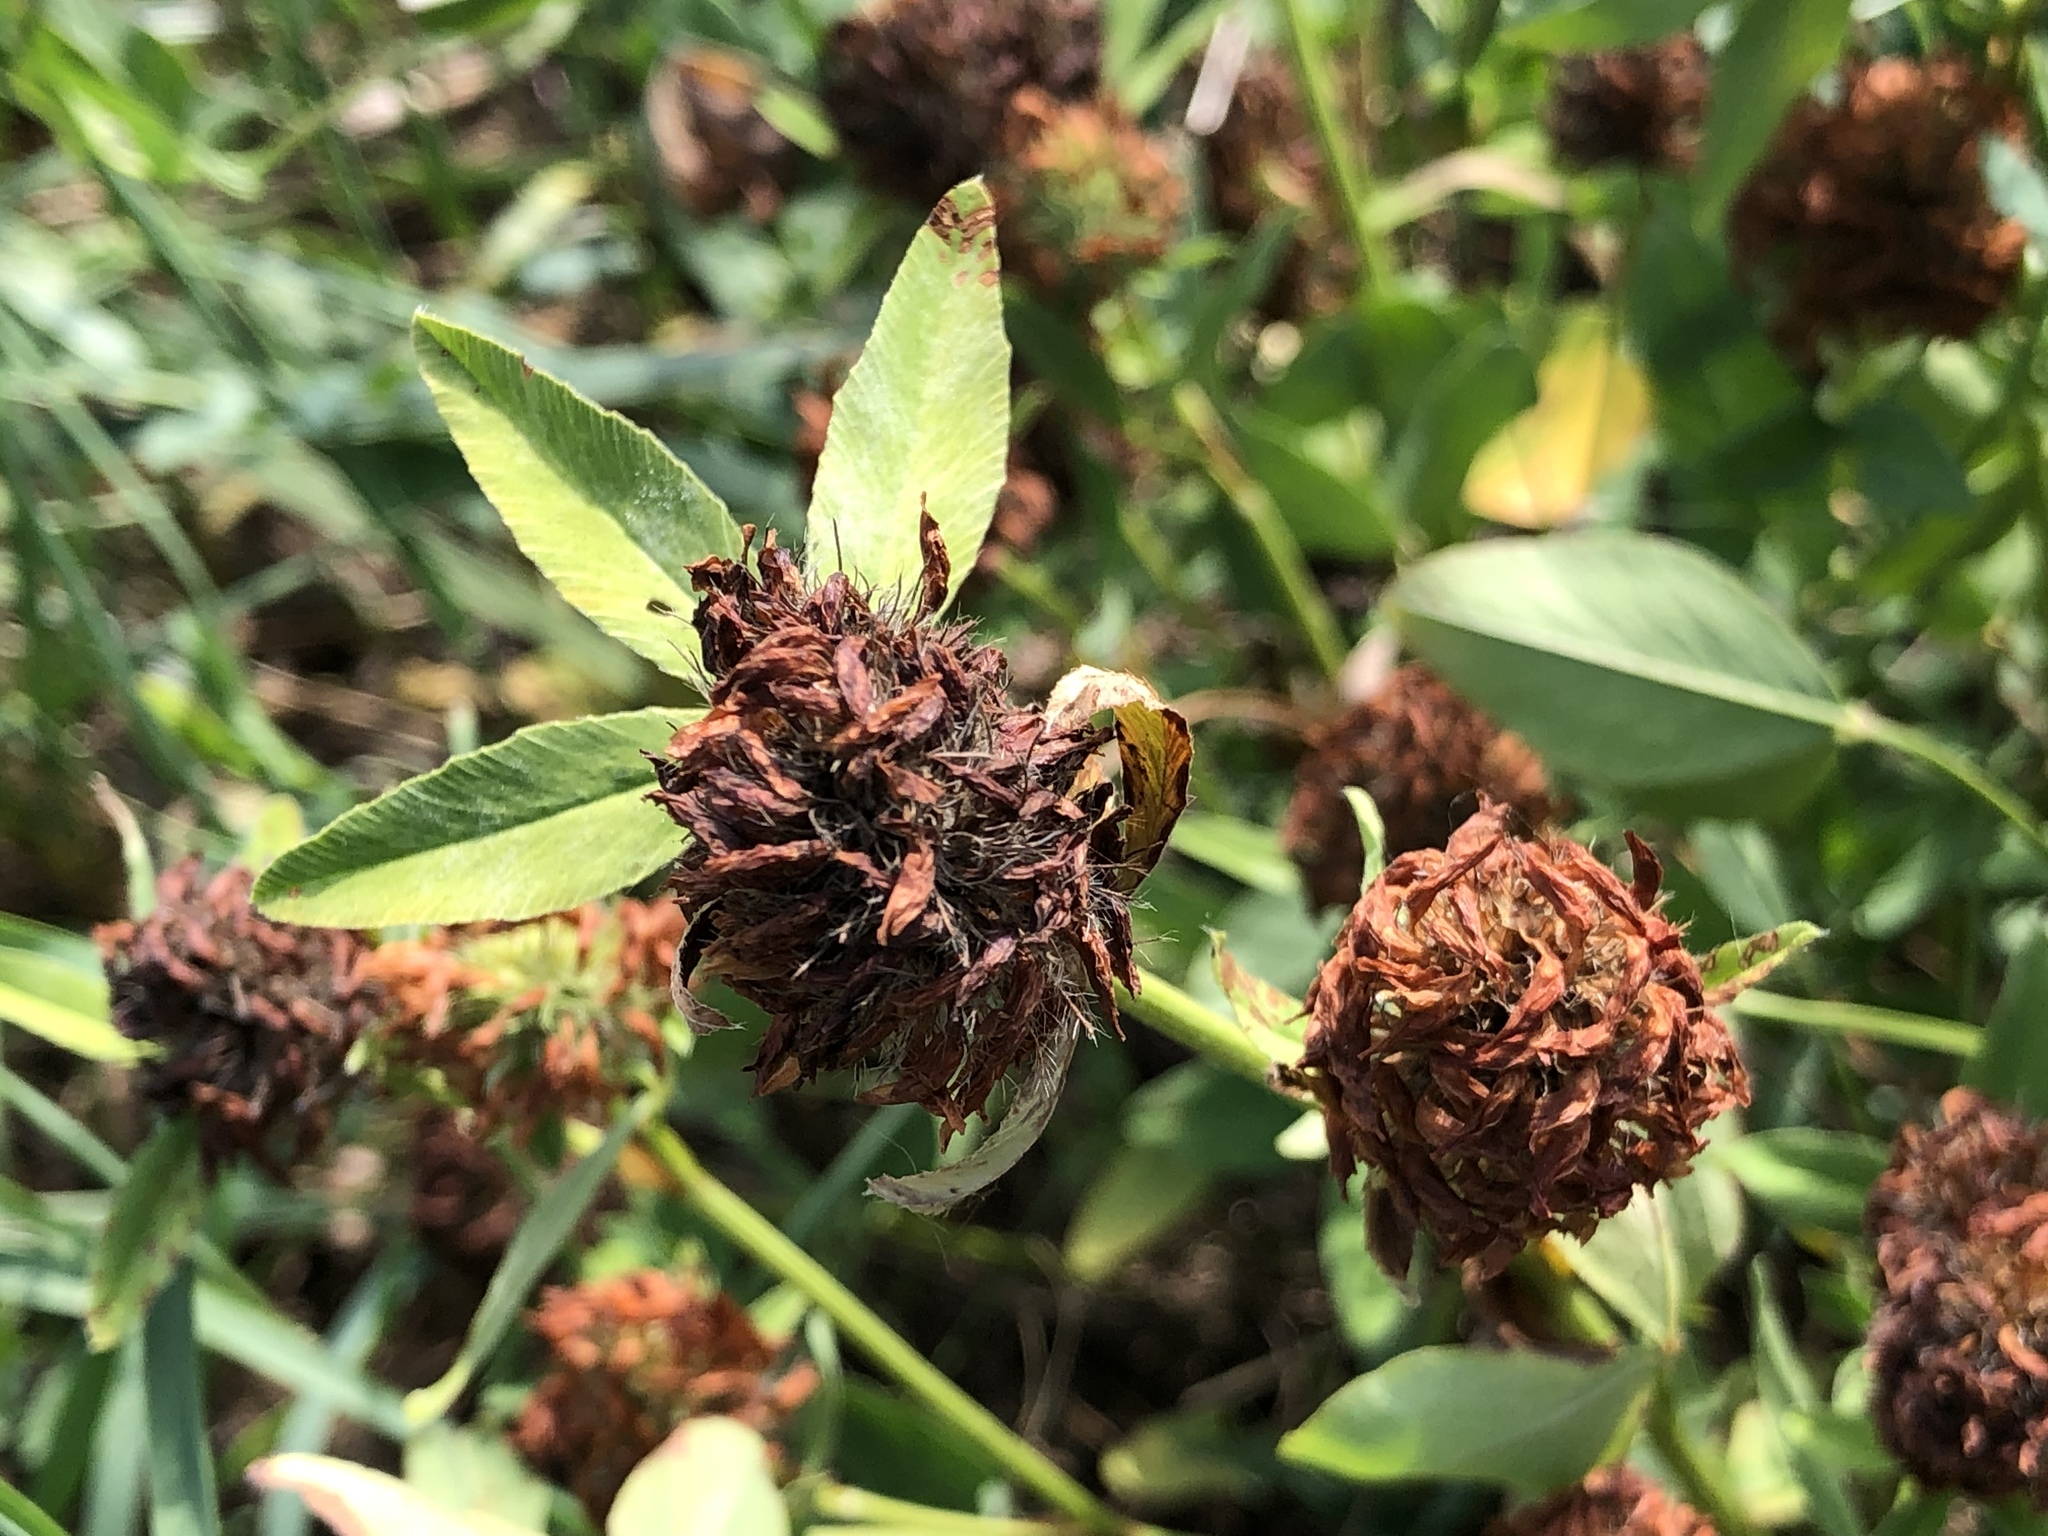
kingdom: Plantae
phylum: Tracheophyta
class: Magnoliopsida
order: Fabales
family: Fabaceae
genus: Trifolium
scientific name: Trifolium pratense
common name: Red clover
